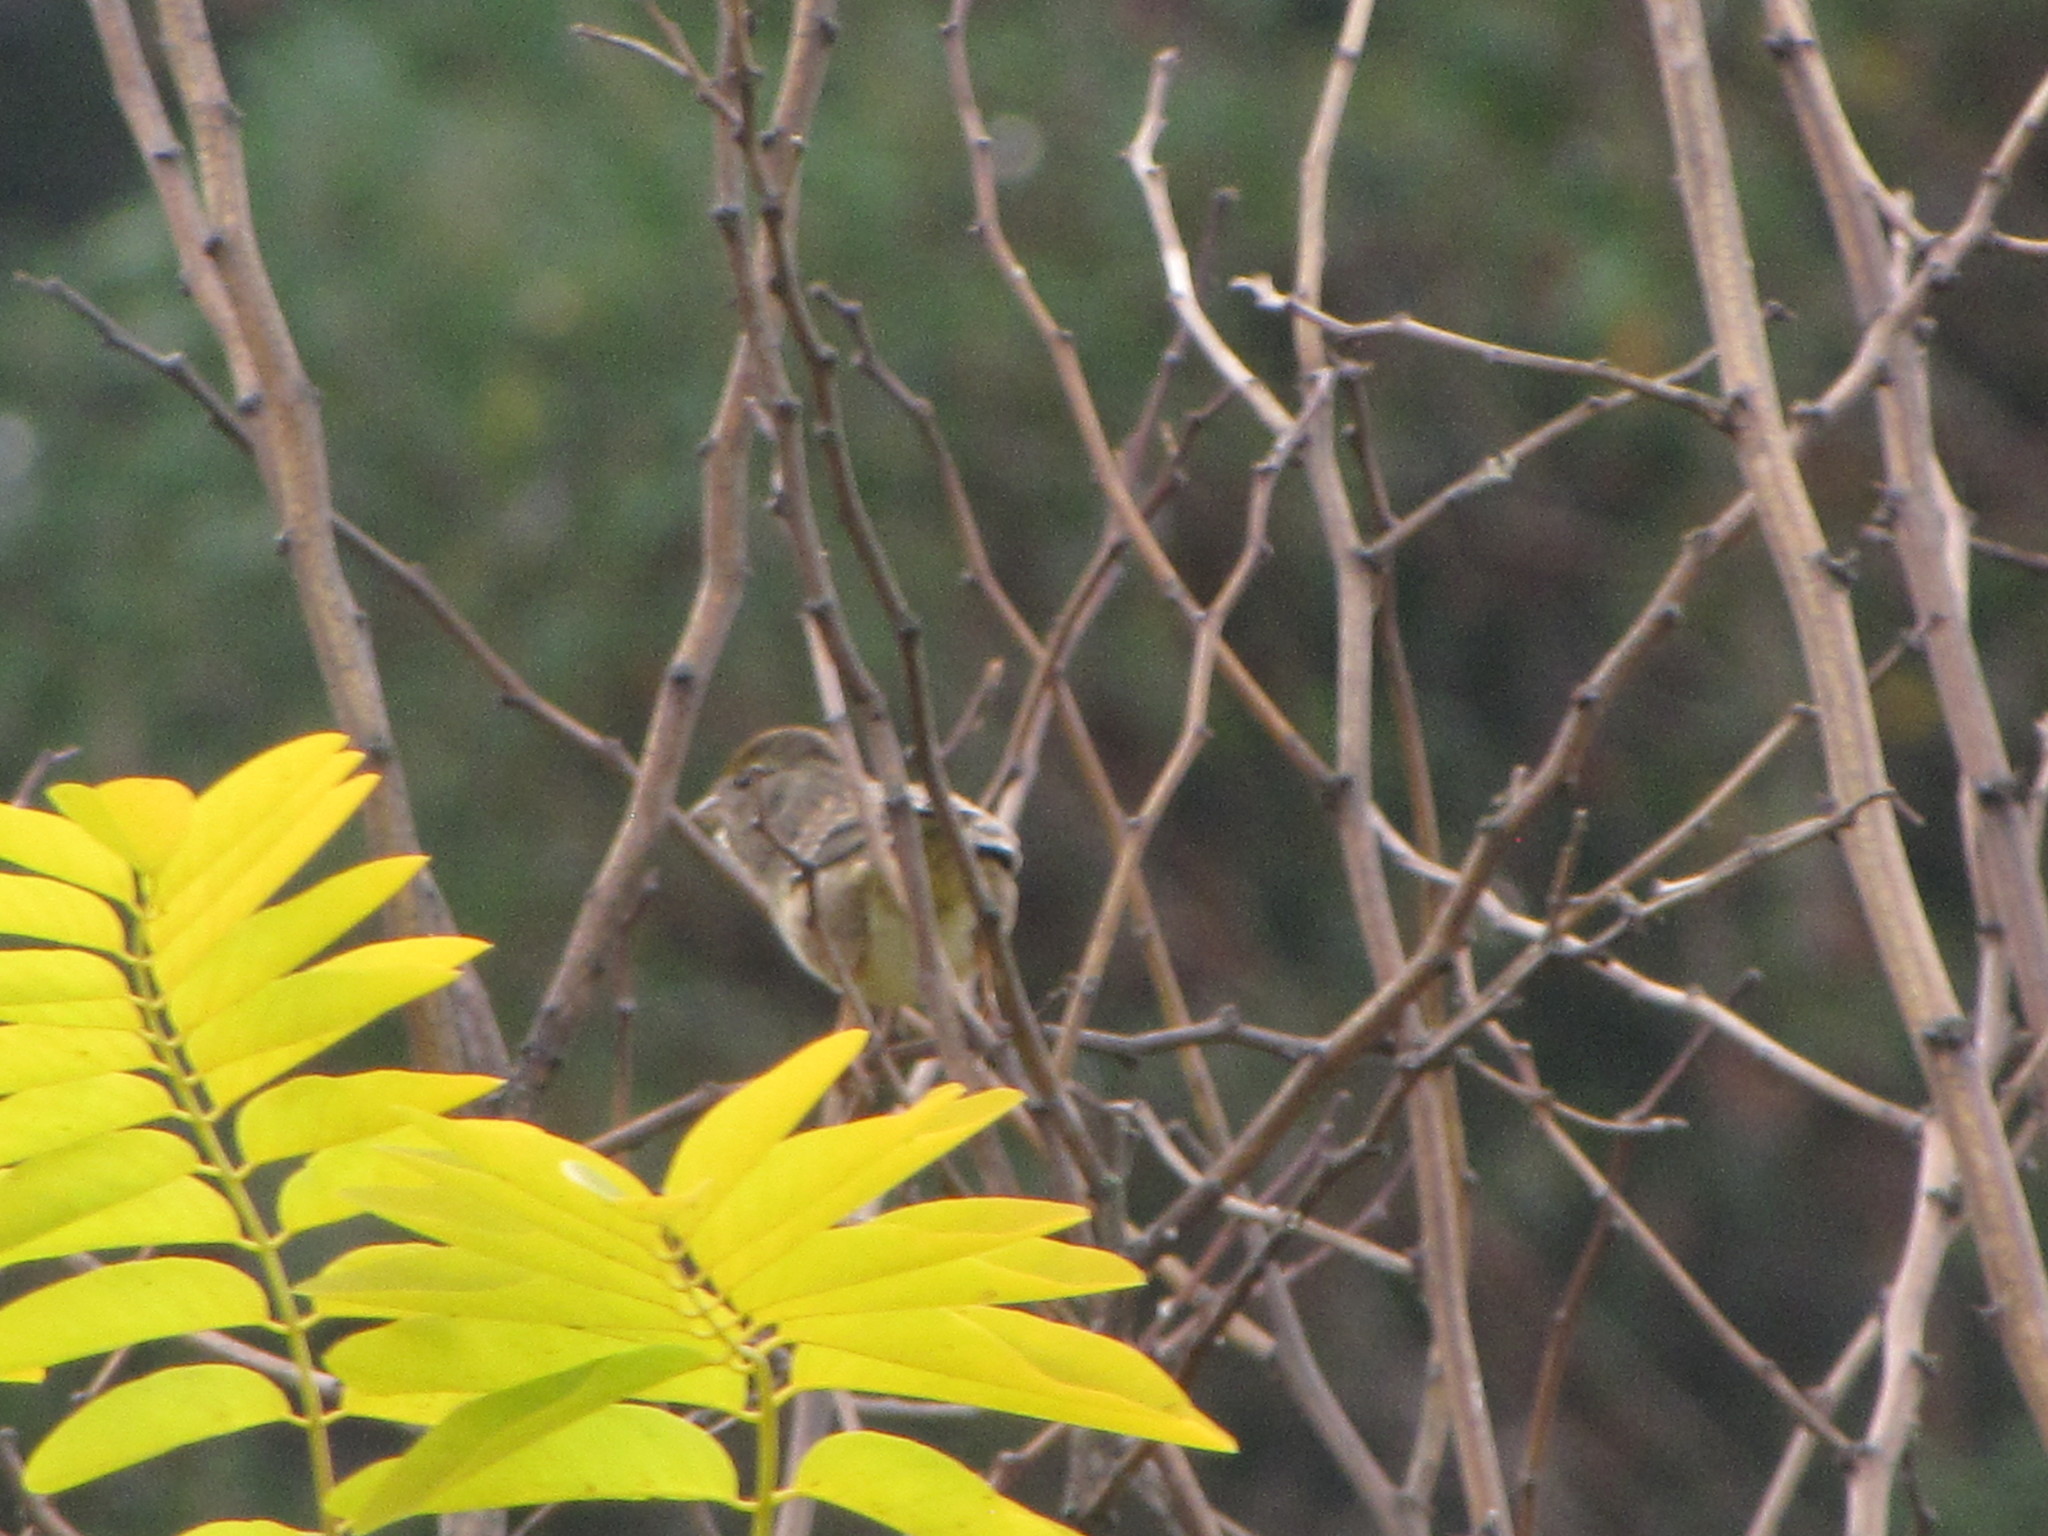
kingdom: Animalia
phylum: Chordata
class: Aves
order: Passeriformes
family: Passerellidae
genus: Zonotrichia
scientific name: Zonotrichia atricapilla
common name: Golden-crowned sparrow
